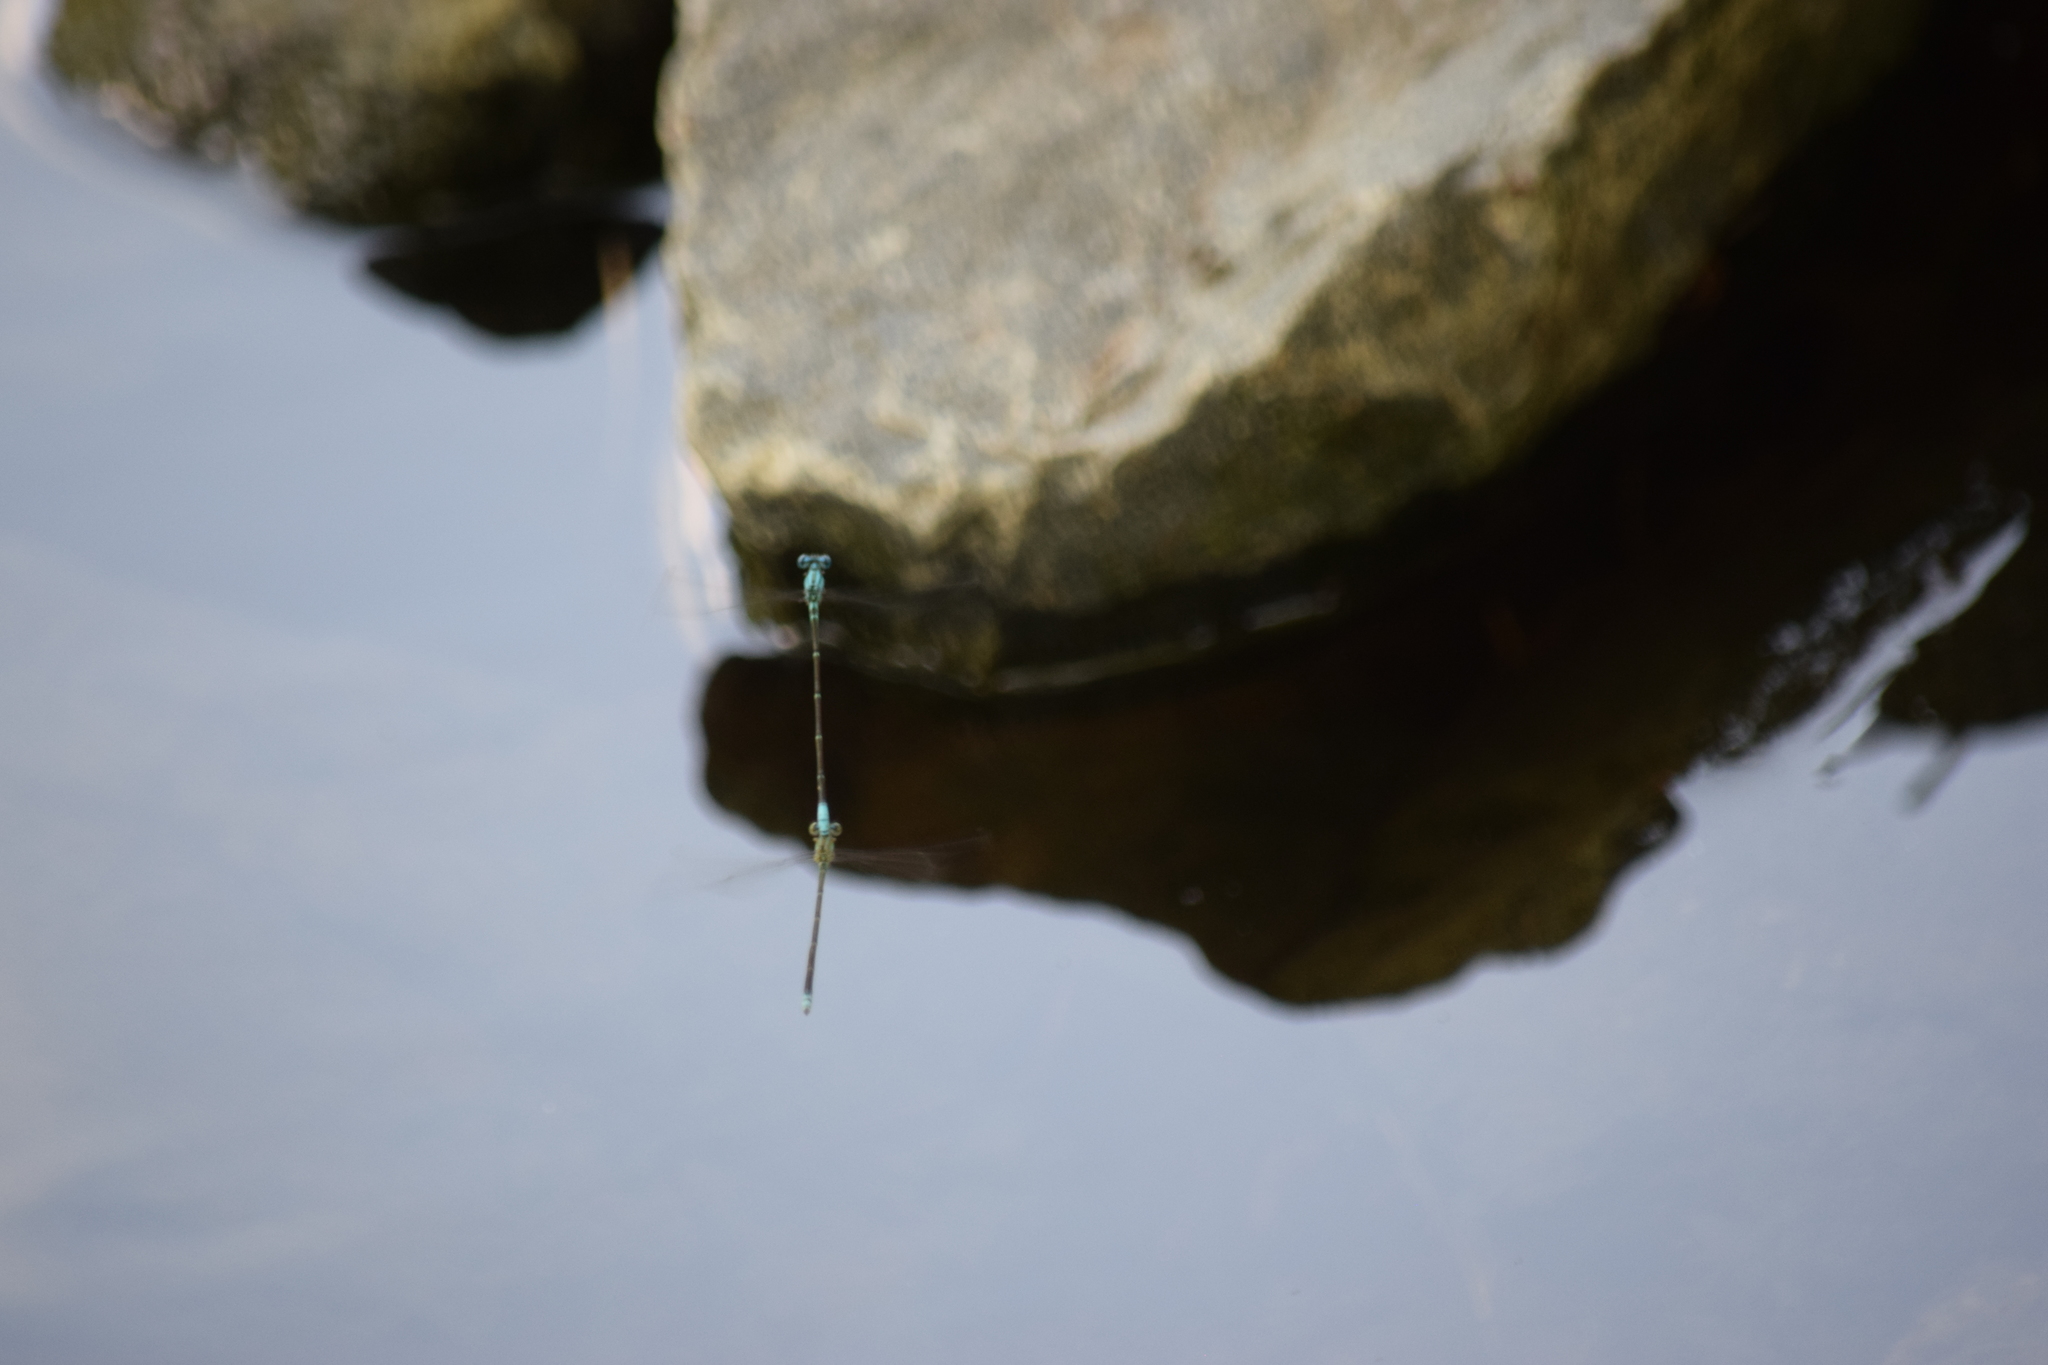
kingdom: Animalia
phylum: Arthropoda
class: Insecta
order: Odonata
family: Coenagrionidae
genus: Enallagma
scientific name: Enallagma pallidum
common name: Pale bluet
